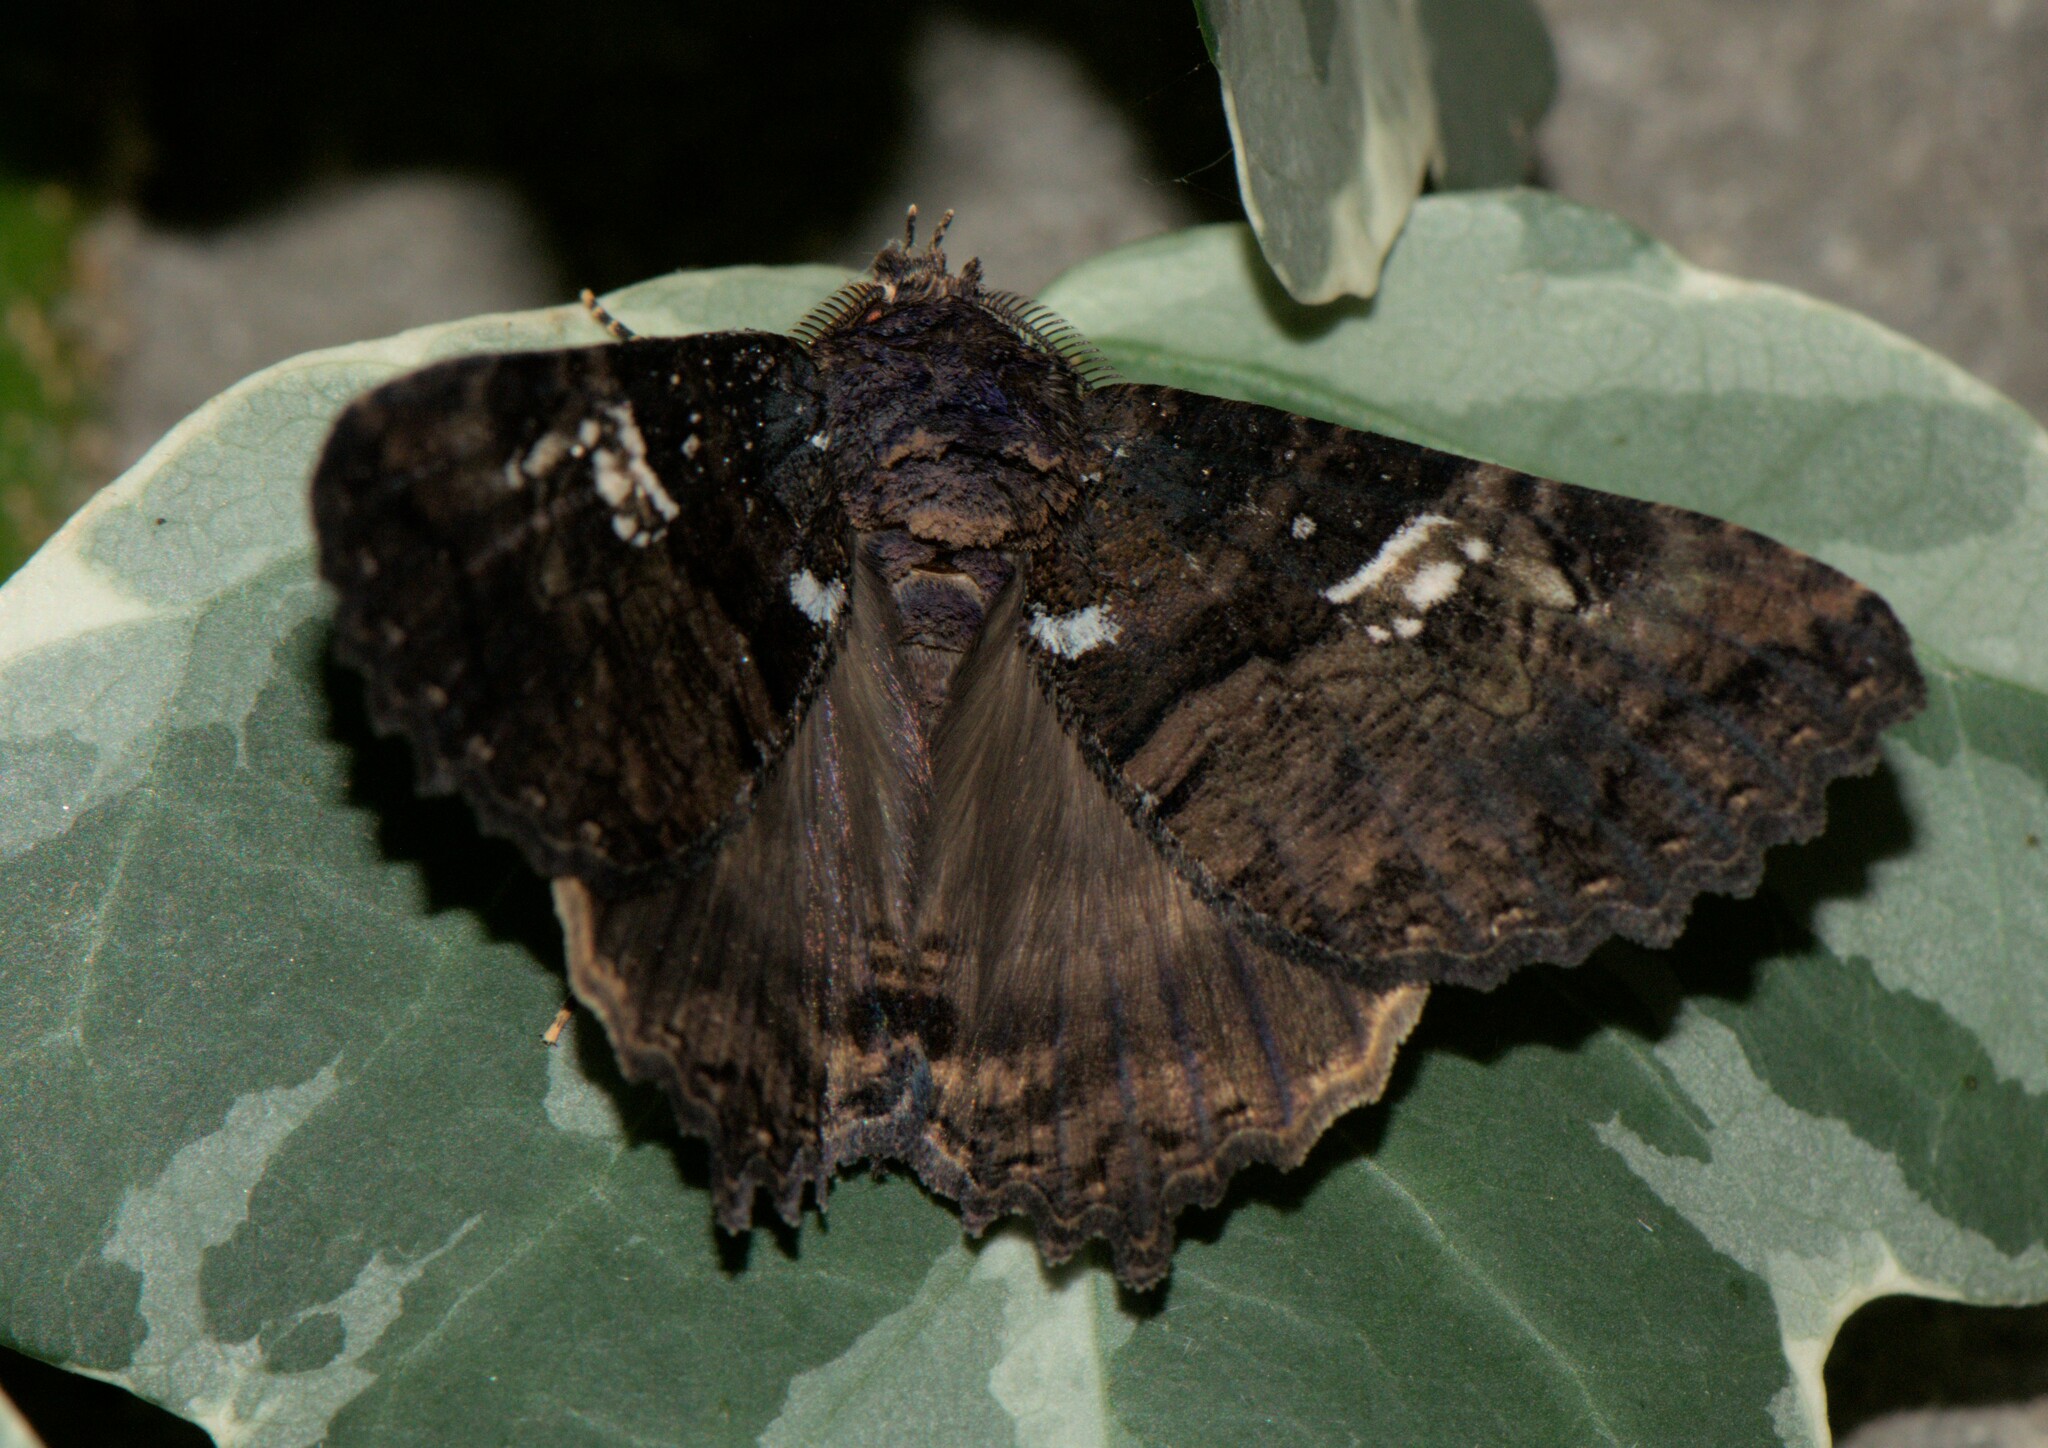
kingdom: Animalia
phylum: Arthropoda
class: Insecta
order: Lepidoptera
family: Erebidae
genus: Daddala
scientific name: Daddala quadrisignata
